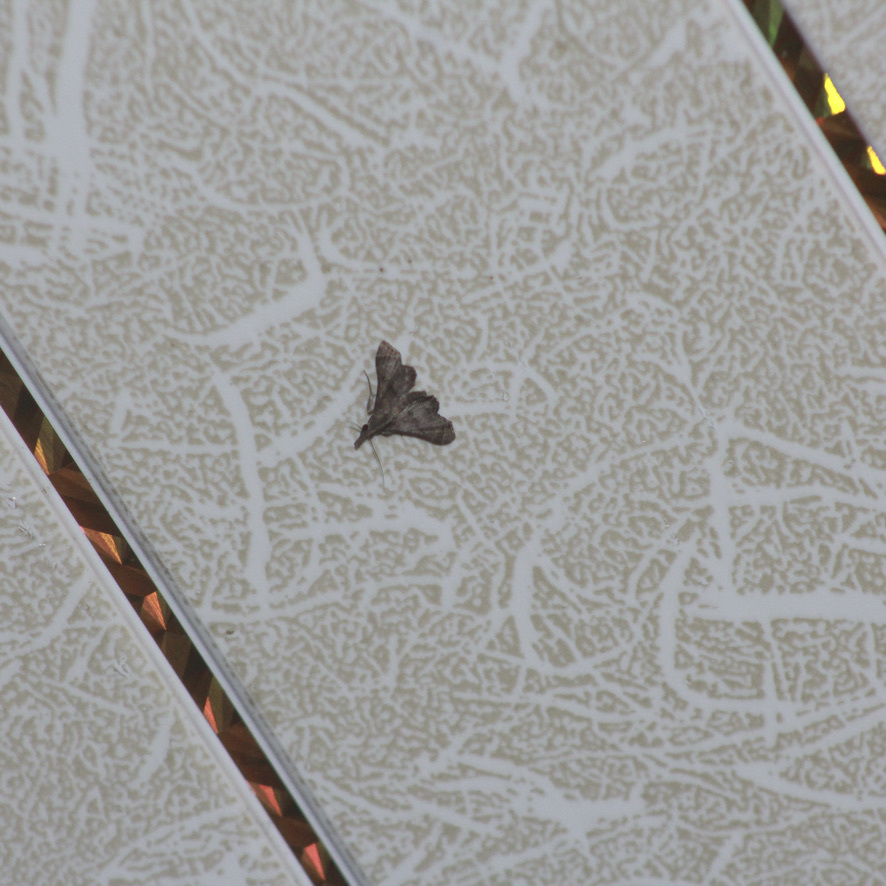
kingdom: Animalia
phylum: Arthropoda
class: Insecta
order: Lepidoptera
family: Erebidae
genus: Mastigophorus
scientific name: Mastigophorus augustus
